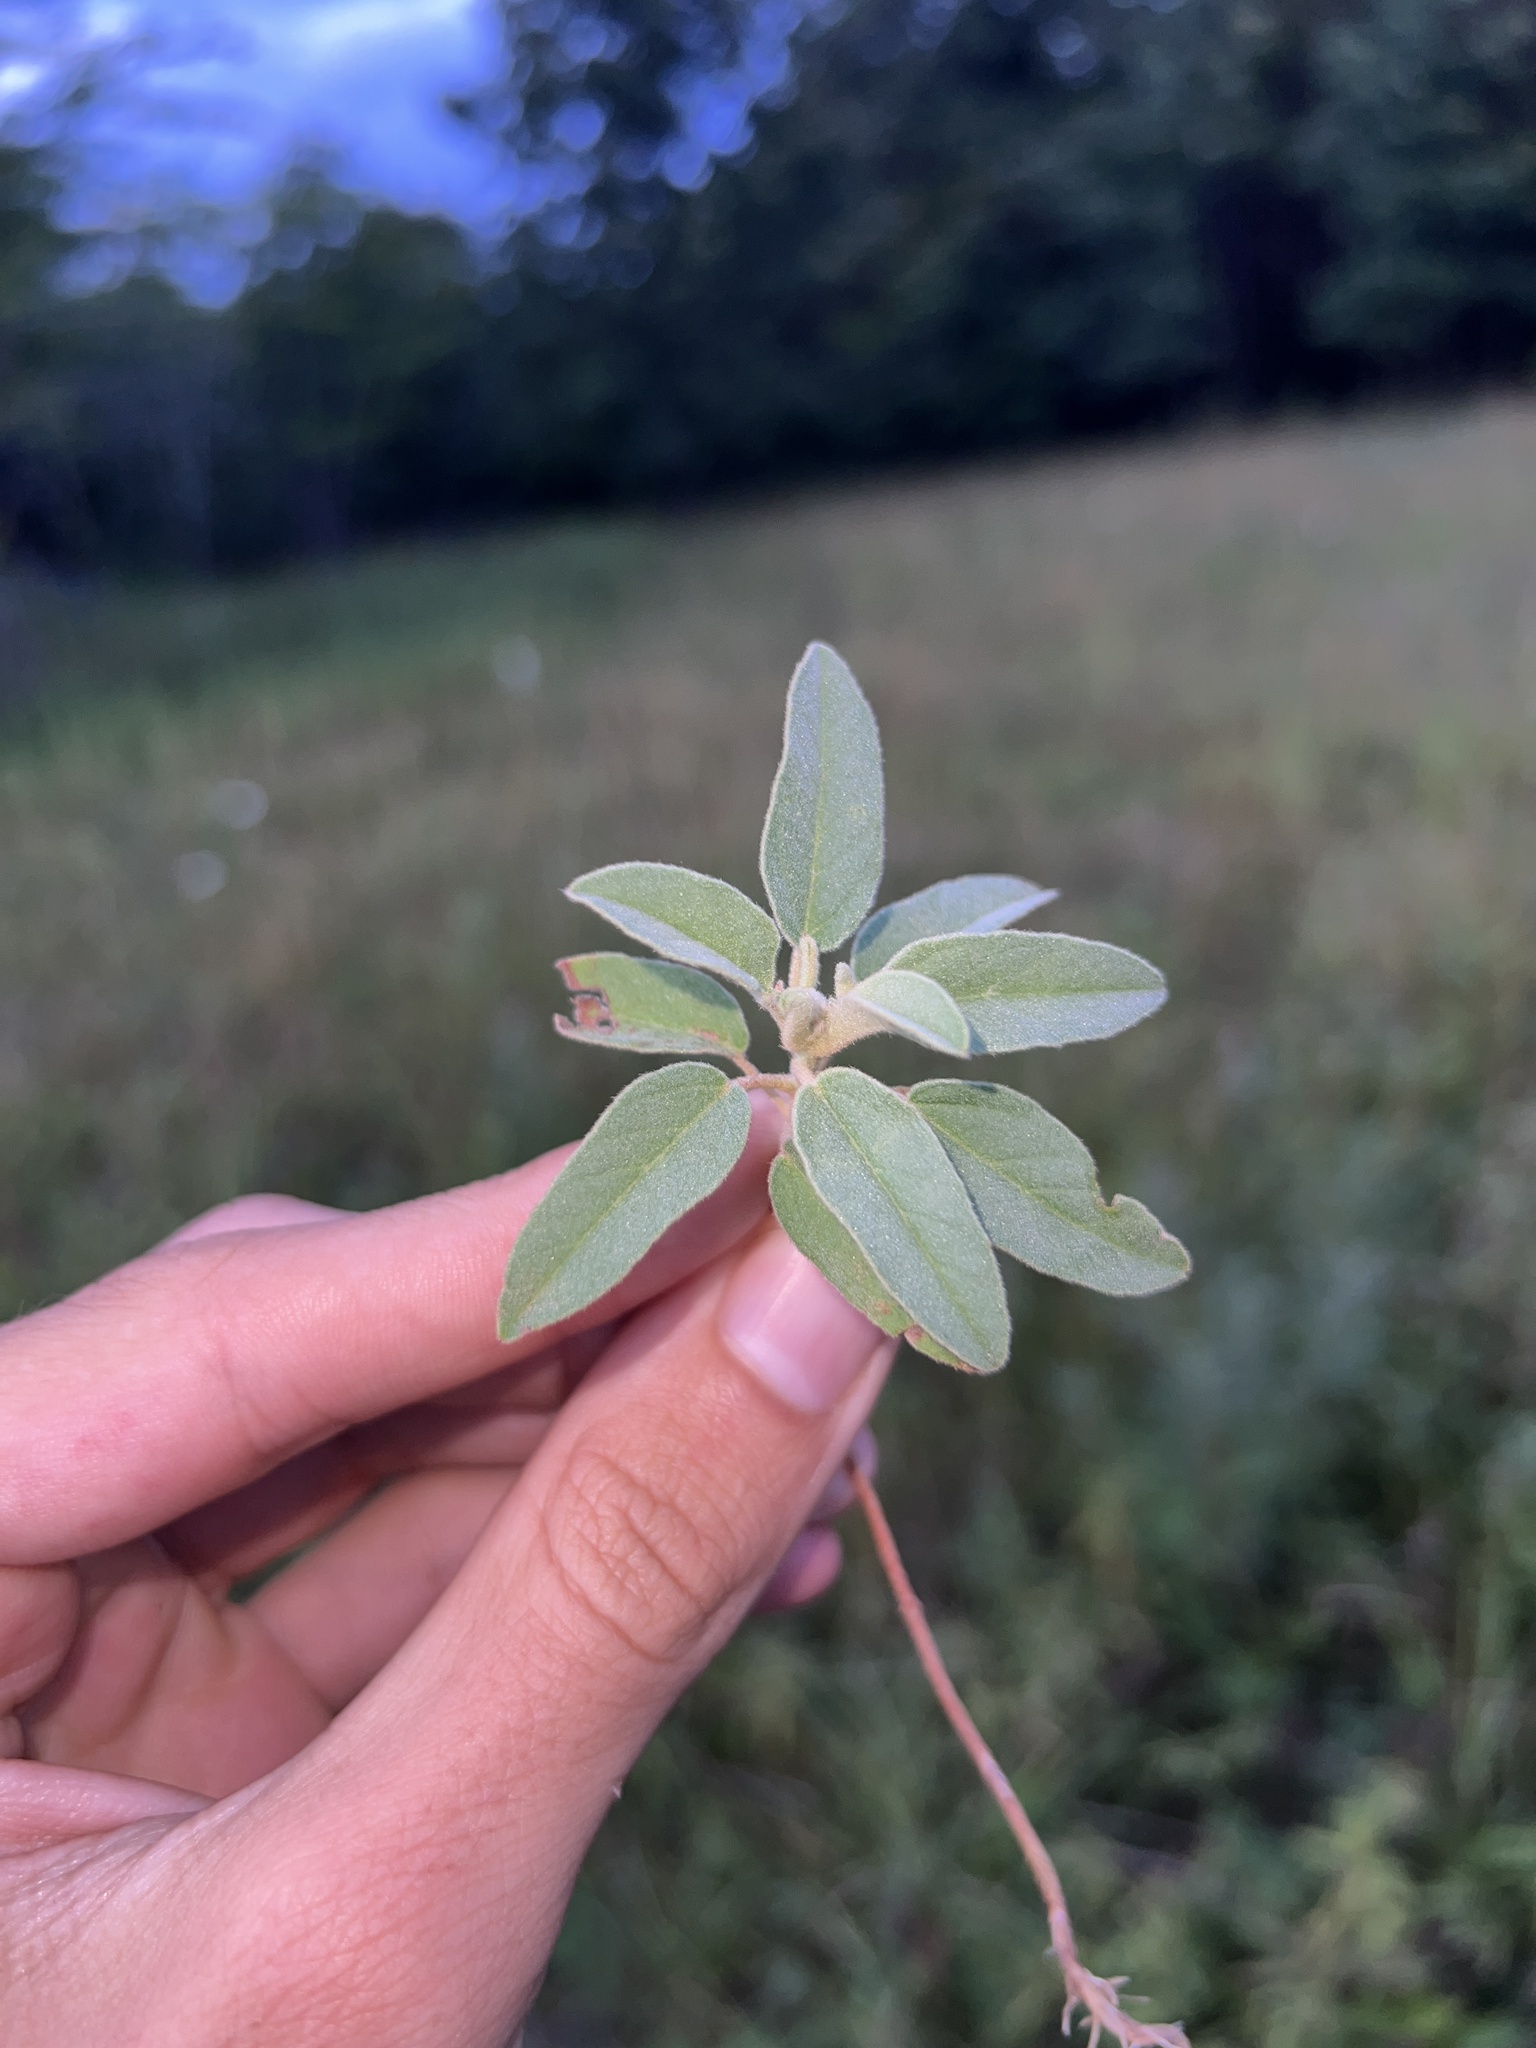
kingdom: Plantae
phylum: Tracheophyta
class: Magnoliopsida
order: Malpighiales
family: Euphorbiaceae
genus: Croton
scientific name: Croton monanthogynus
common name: One-seed croton
